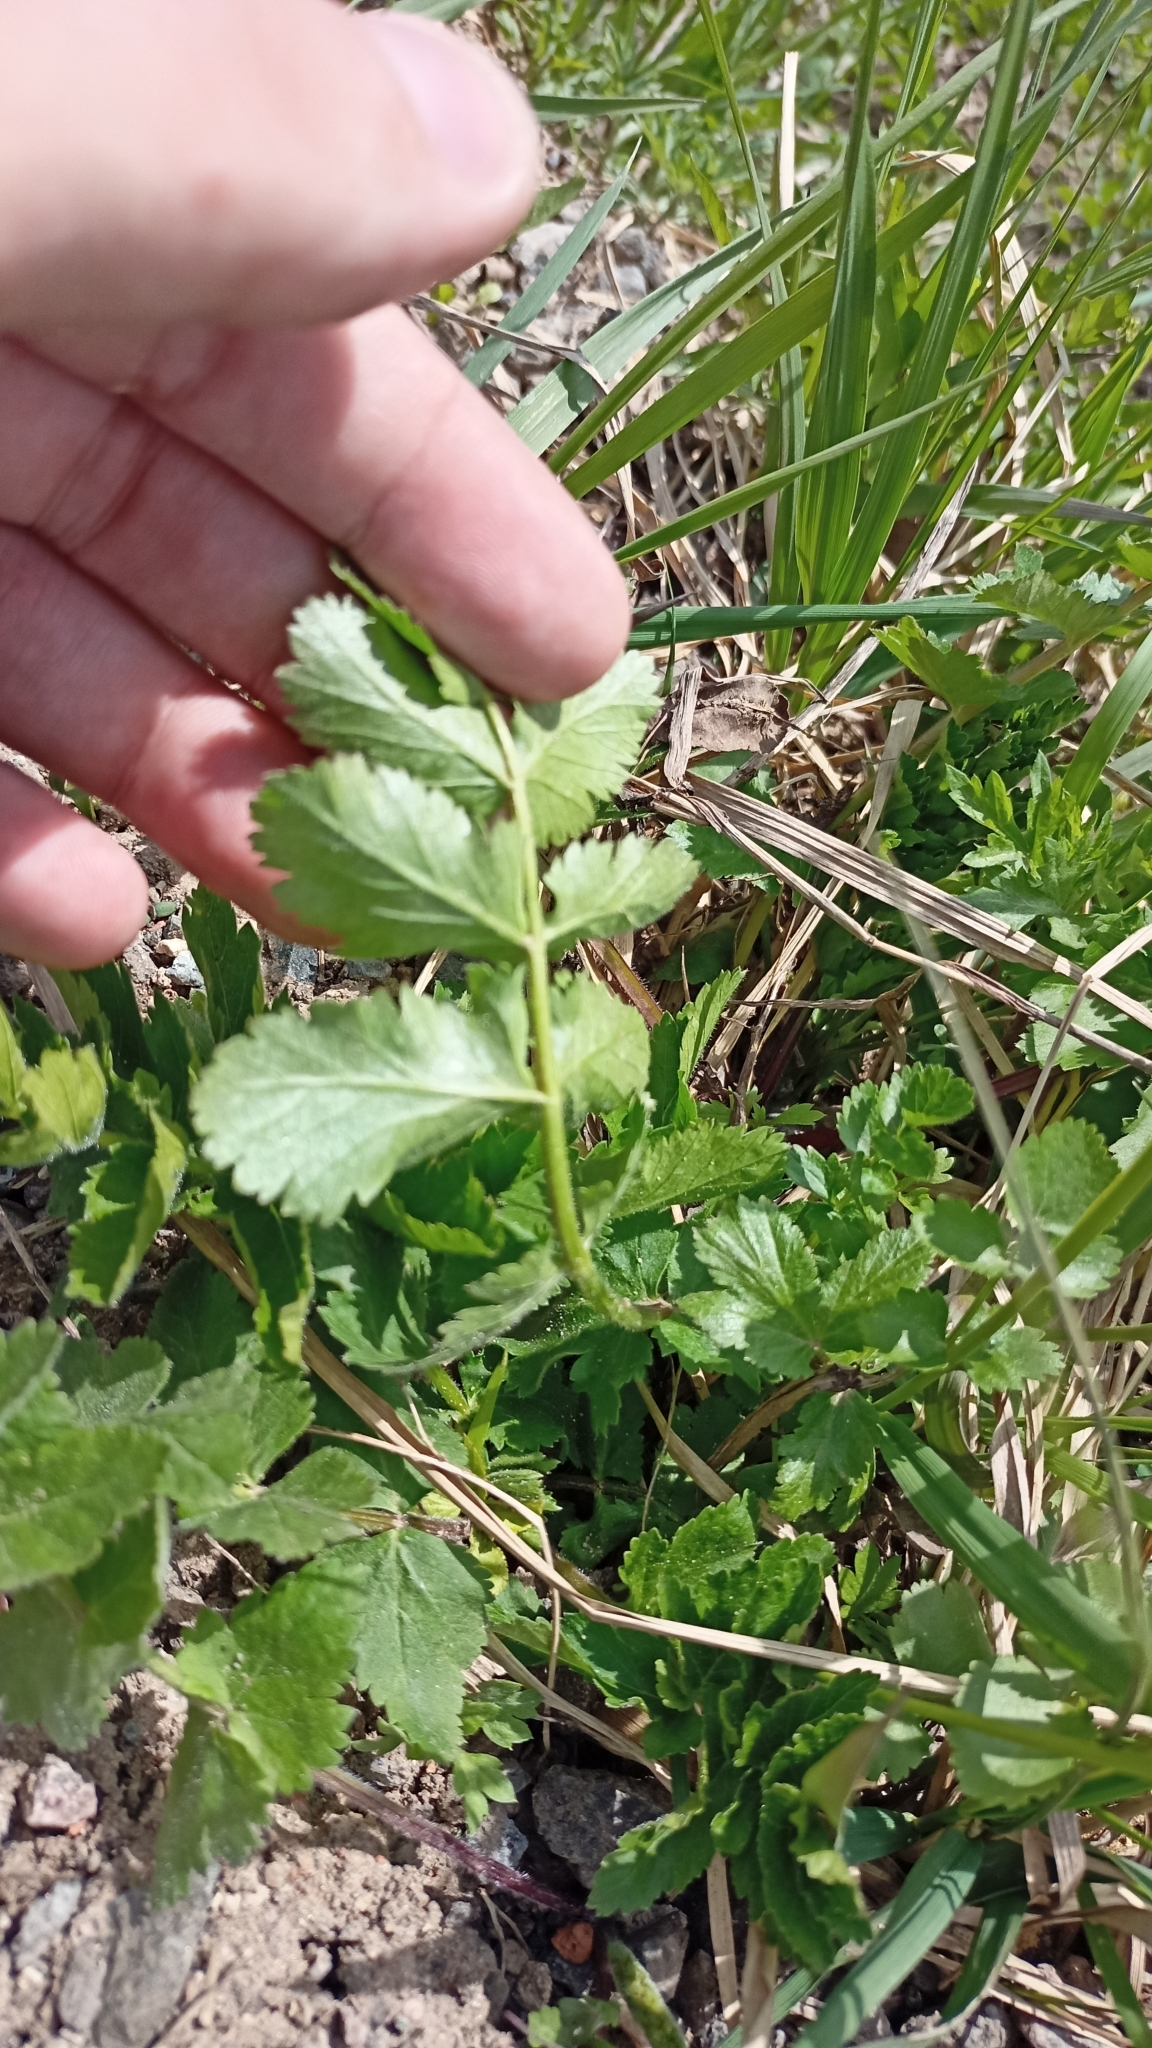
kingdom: Plantae
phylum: Tracheophyta
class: Magnoliopsida
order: Apiales
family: Apiaceae
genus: Pastinaca
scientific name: Pastinaca sativa
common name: Wild parsnip
